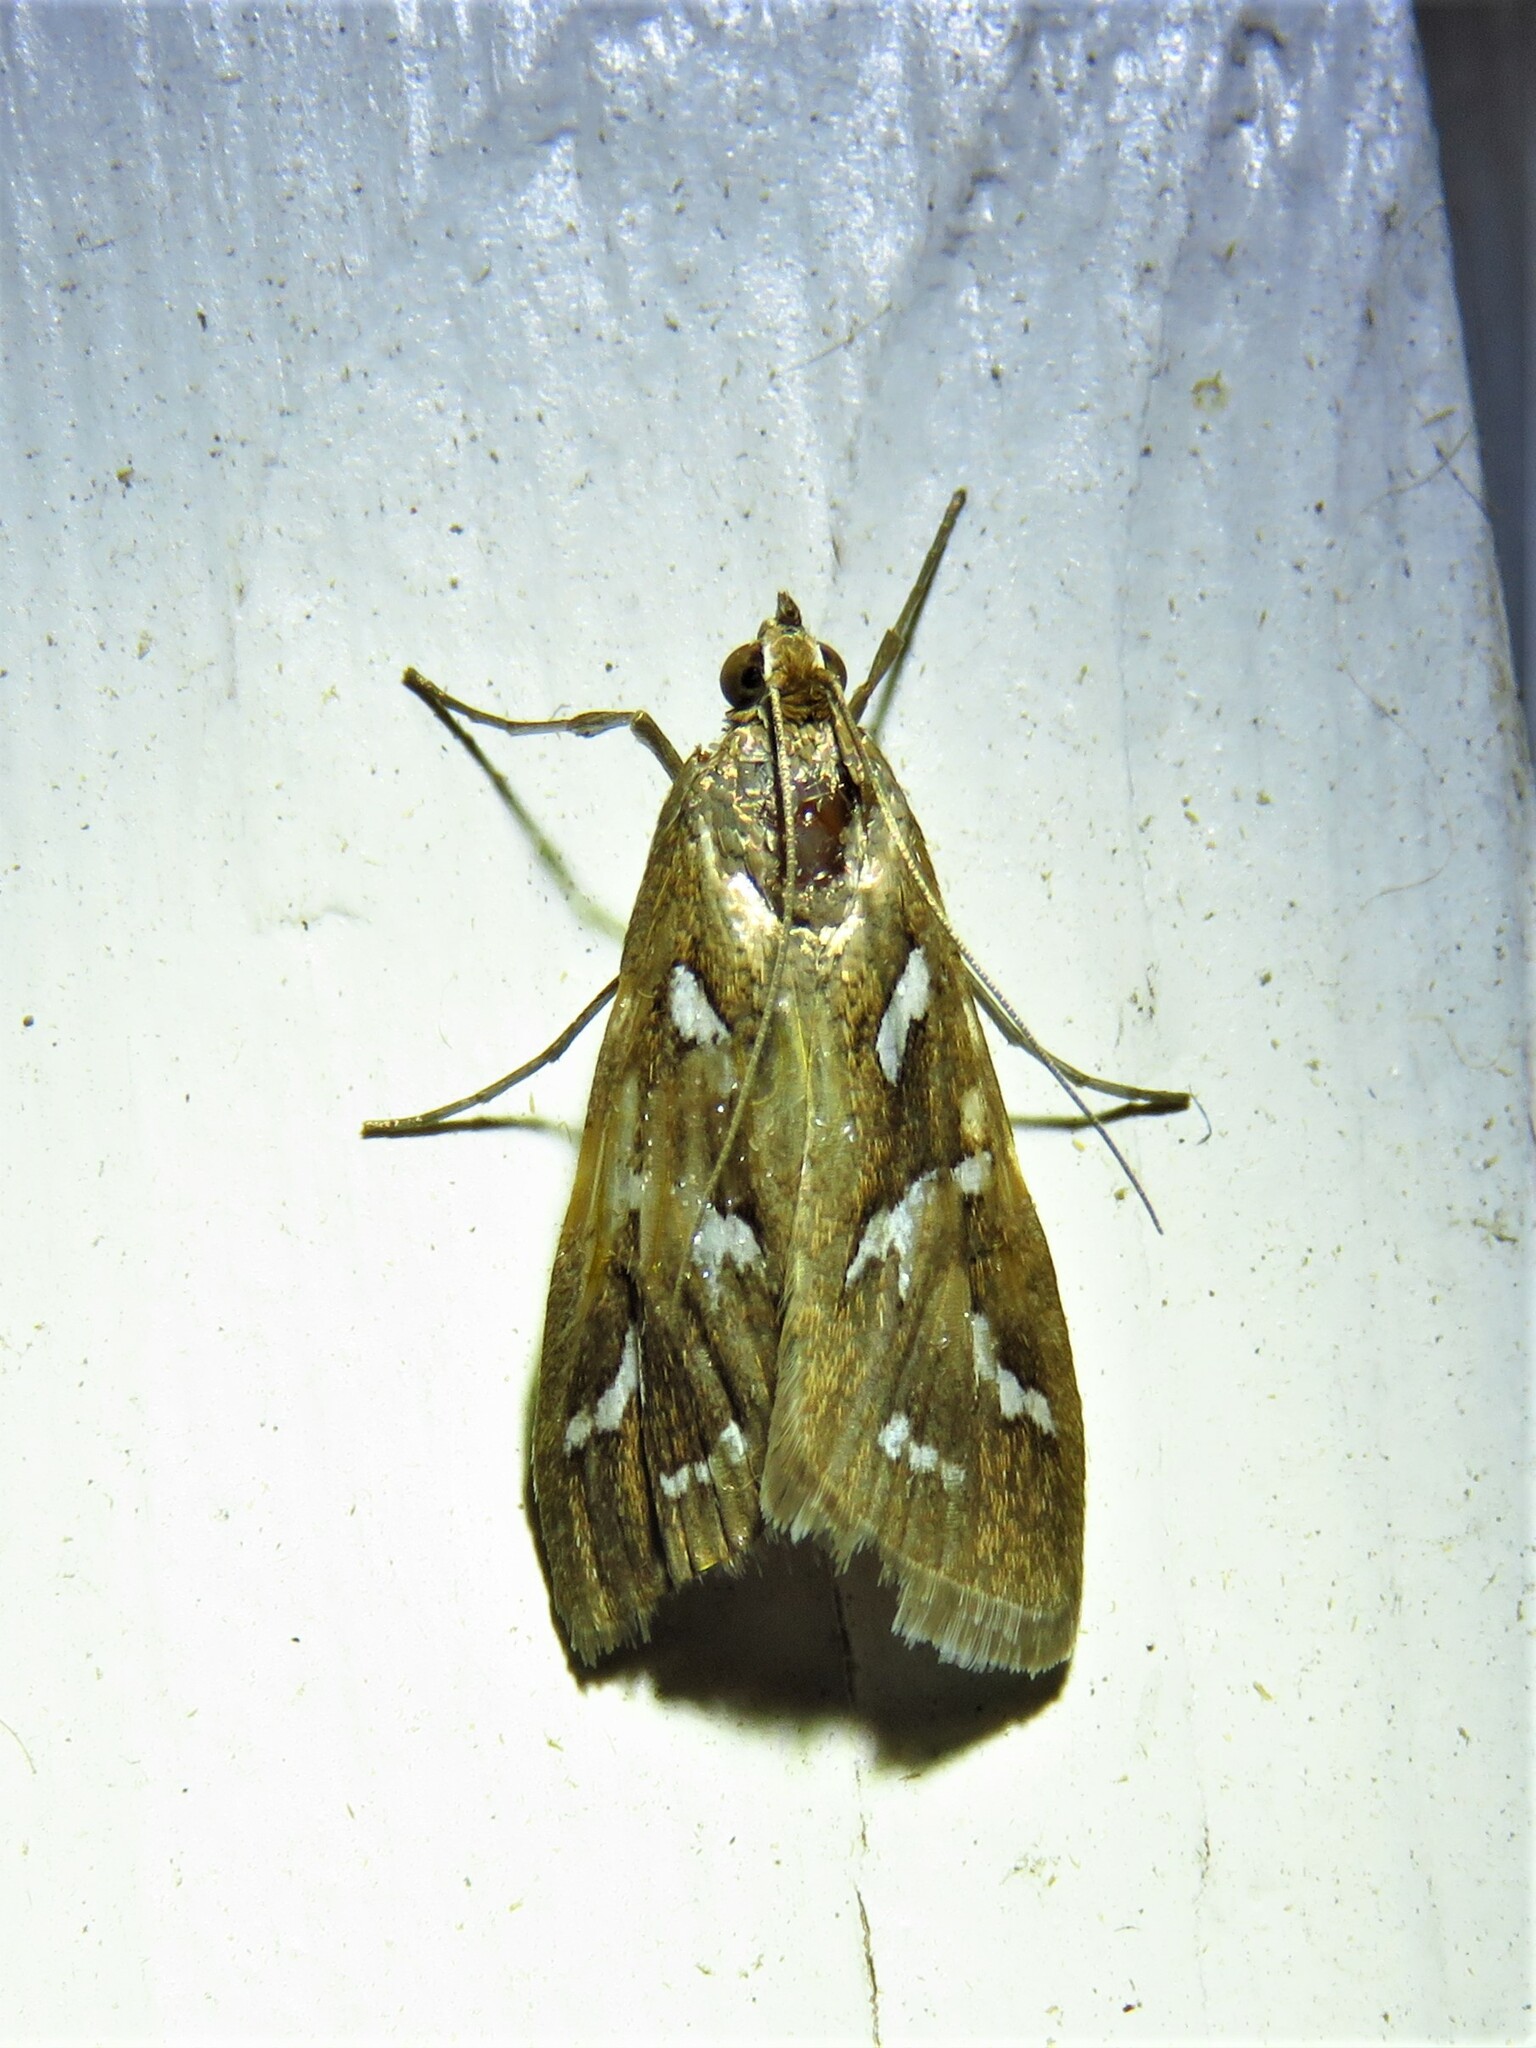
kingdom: Animalia
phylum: Arthropoda
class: Insecta
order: Lepidoptera
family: Crambidae
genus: Diastictis
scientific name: Diastictis fracturalis
